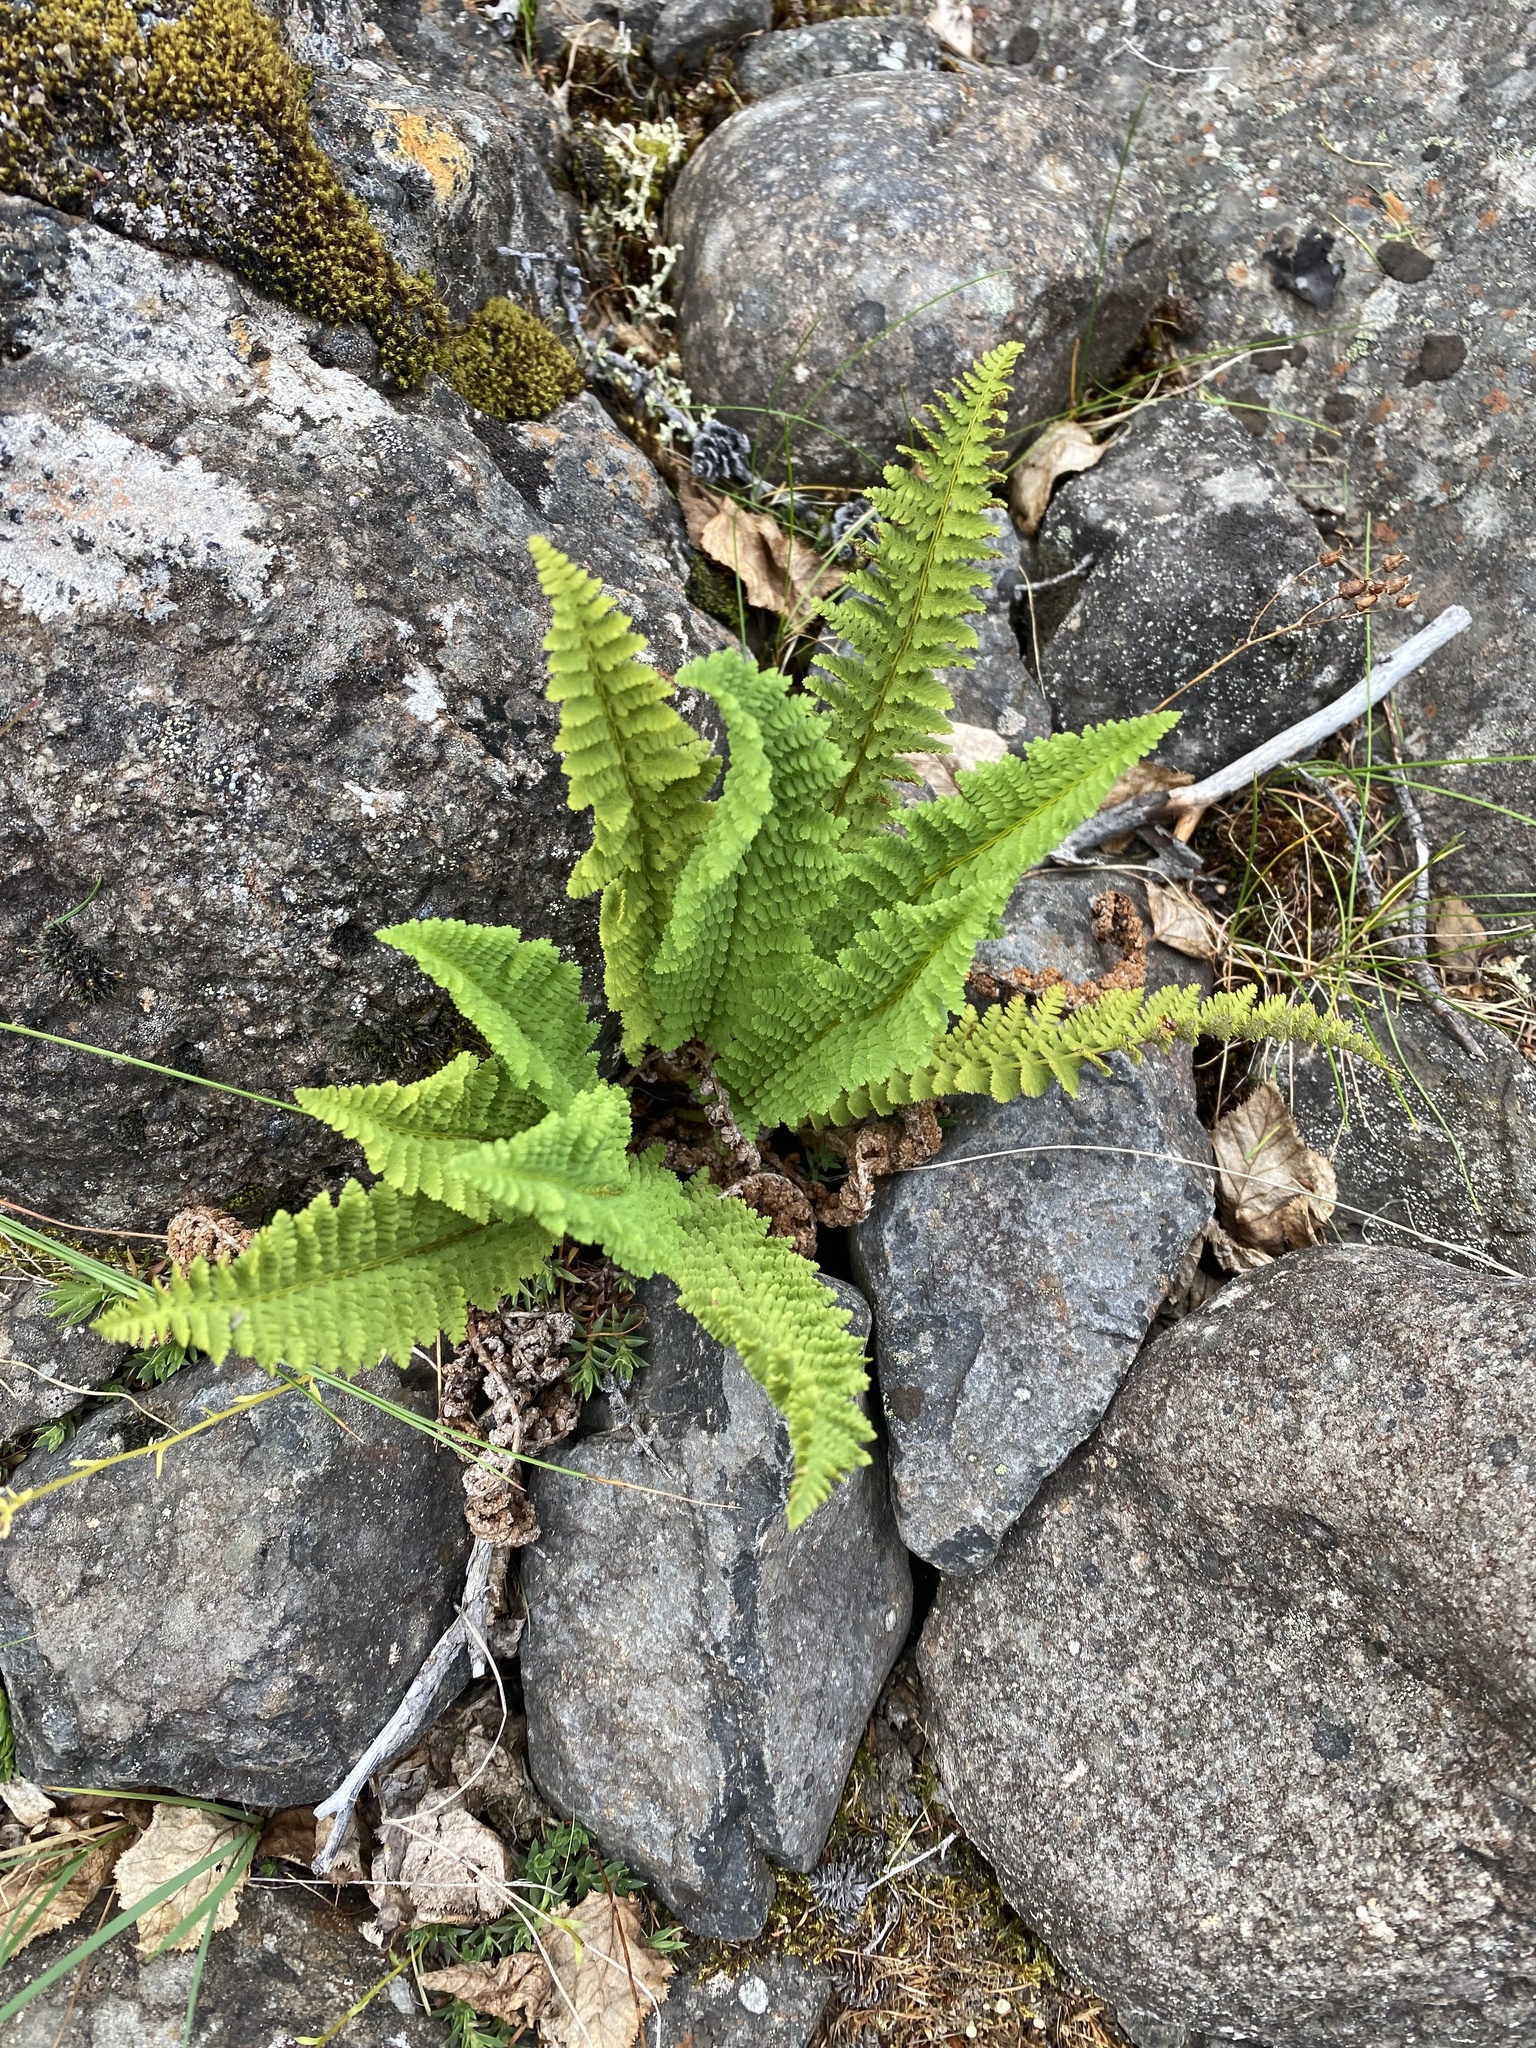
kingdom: Plantae
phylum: Tracheophyta
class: Polypodiopsida
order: Polypodiales
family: Dryopteridaceae
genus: Dryopteris
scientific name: Dryopteris fragrans
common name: Fragrant wood fern
